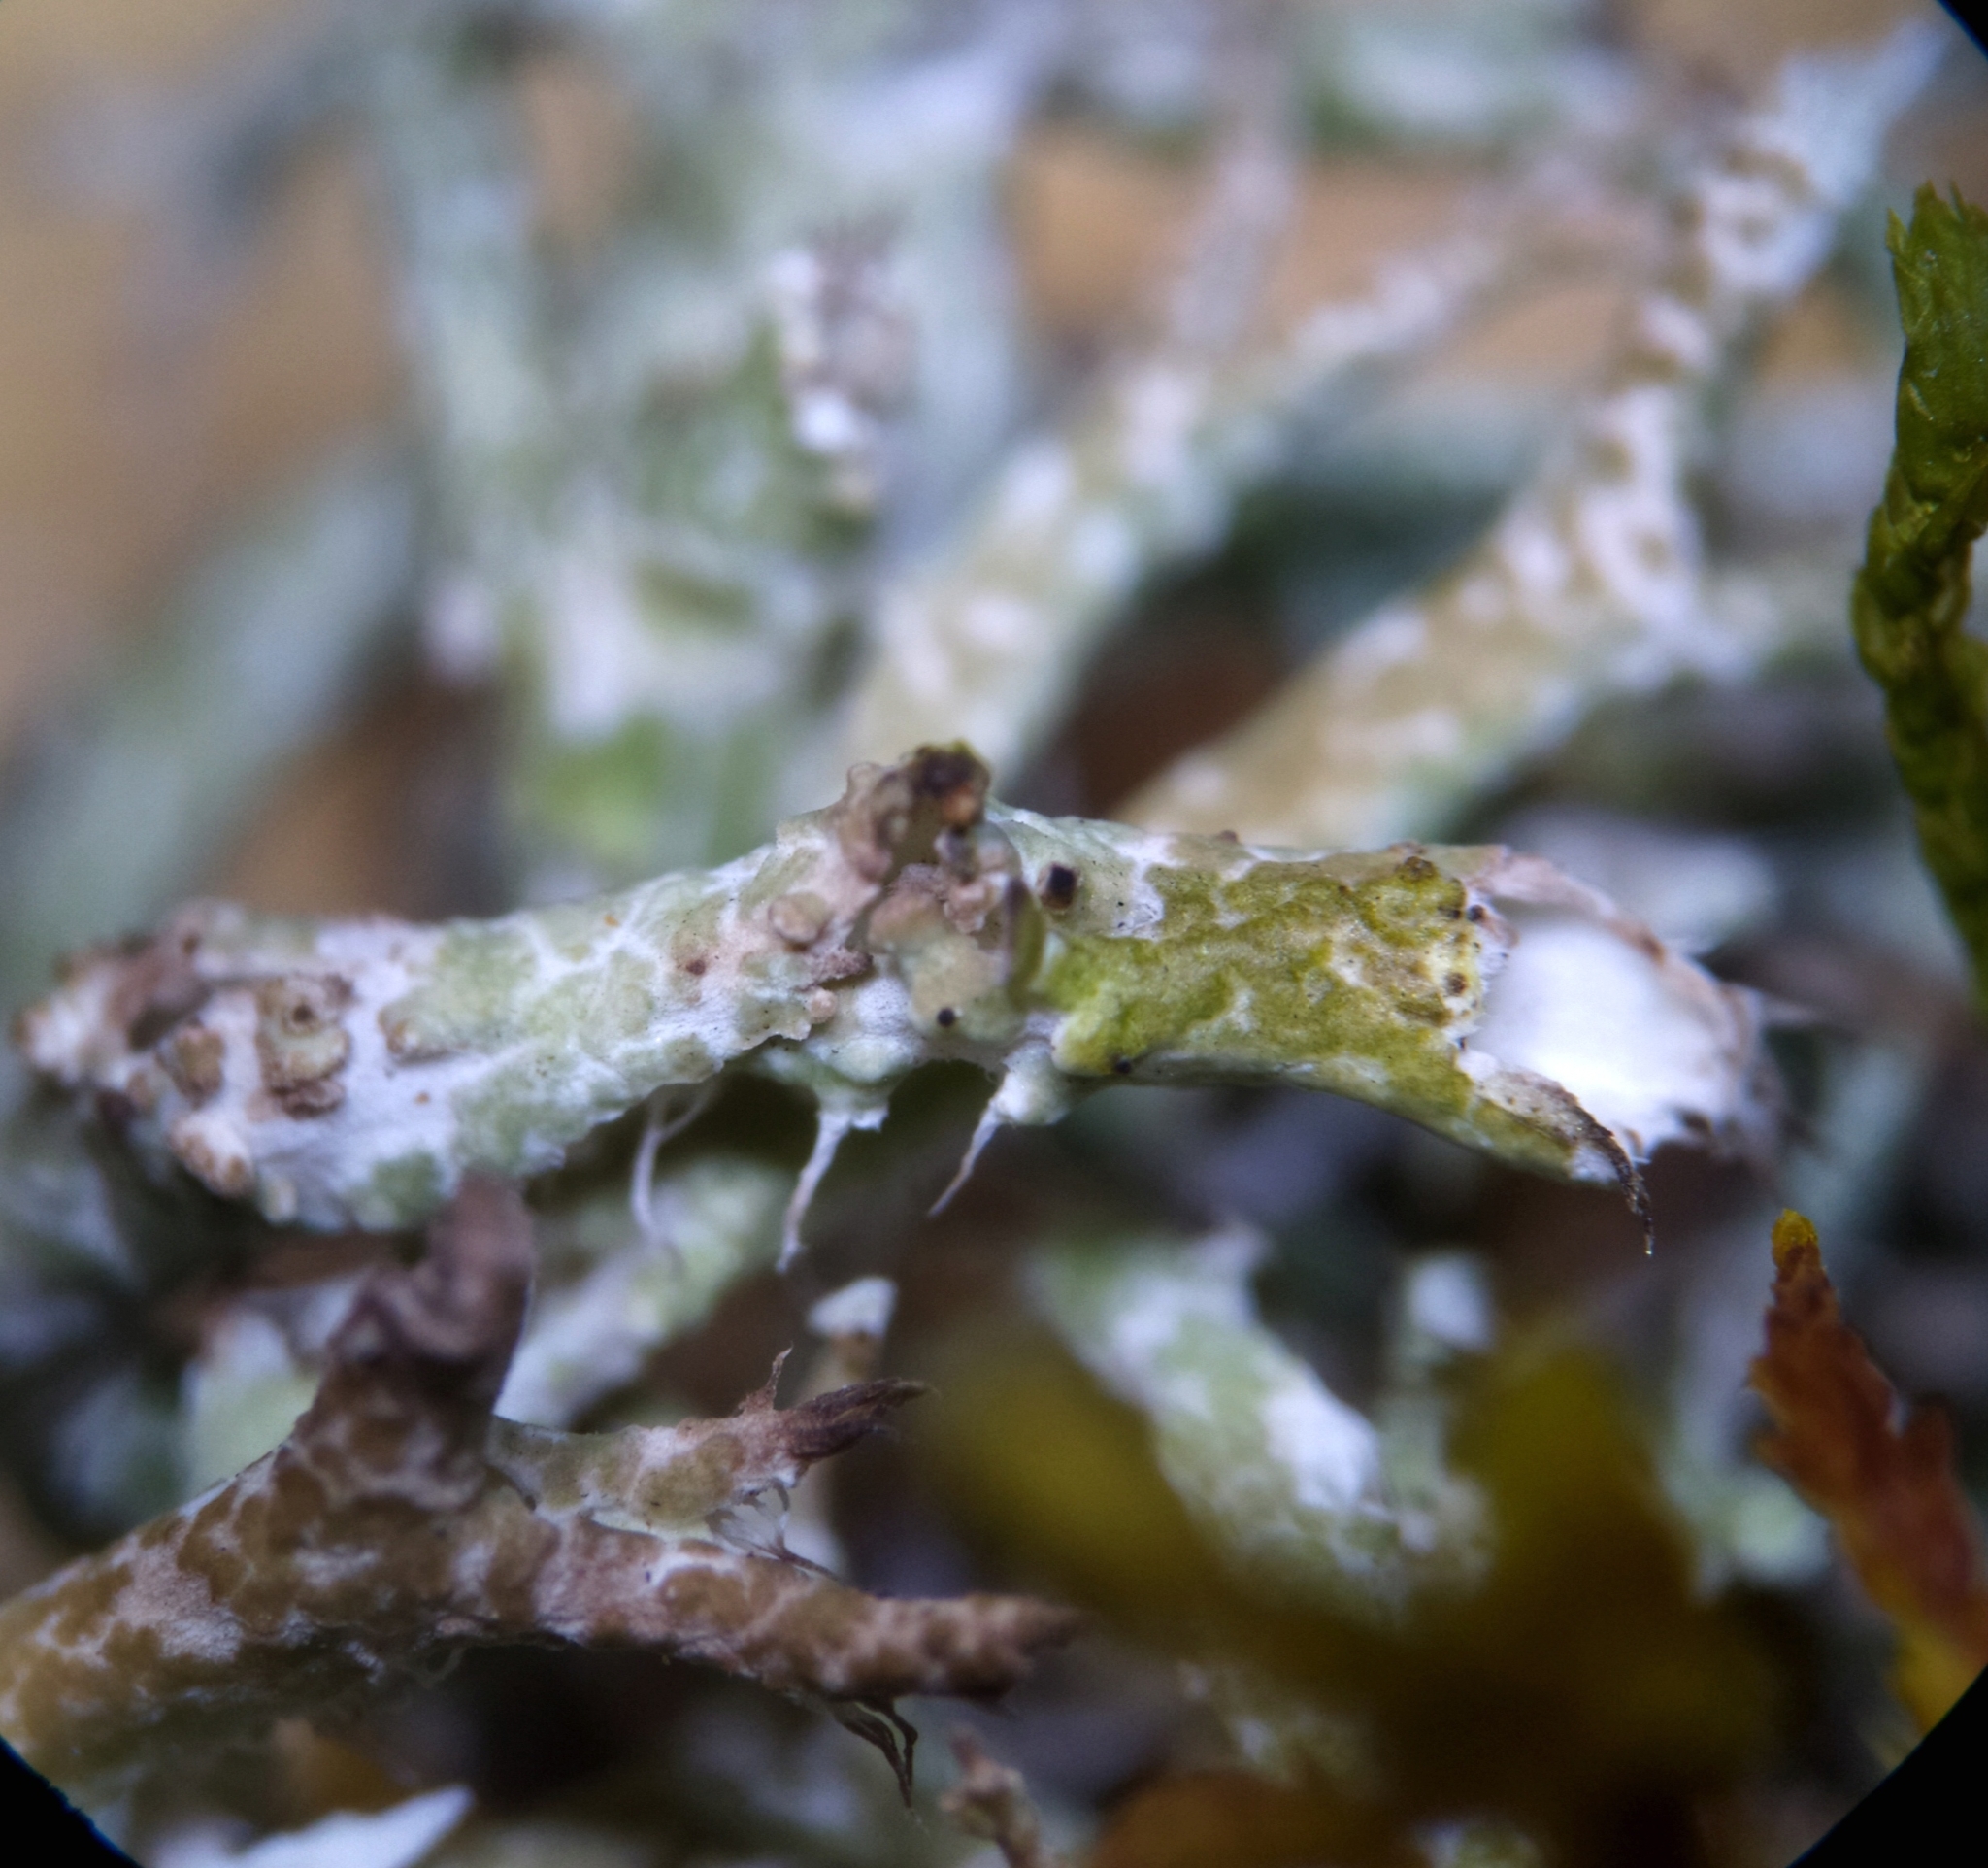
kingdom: Fungi
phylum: Ascomycota
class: Lecanoromycetes
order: Lecanorales
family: Cladoniaceae
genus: Cladonia
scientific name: Cladonia furcata
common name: Many-forked cladonia
